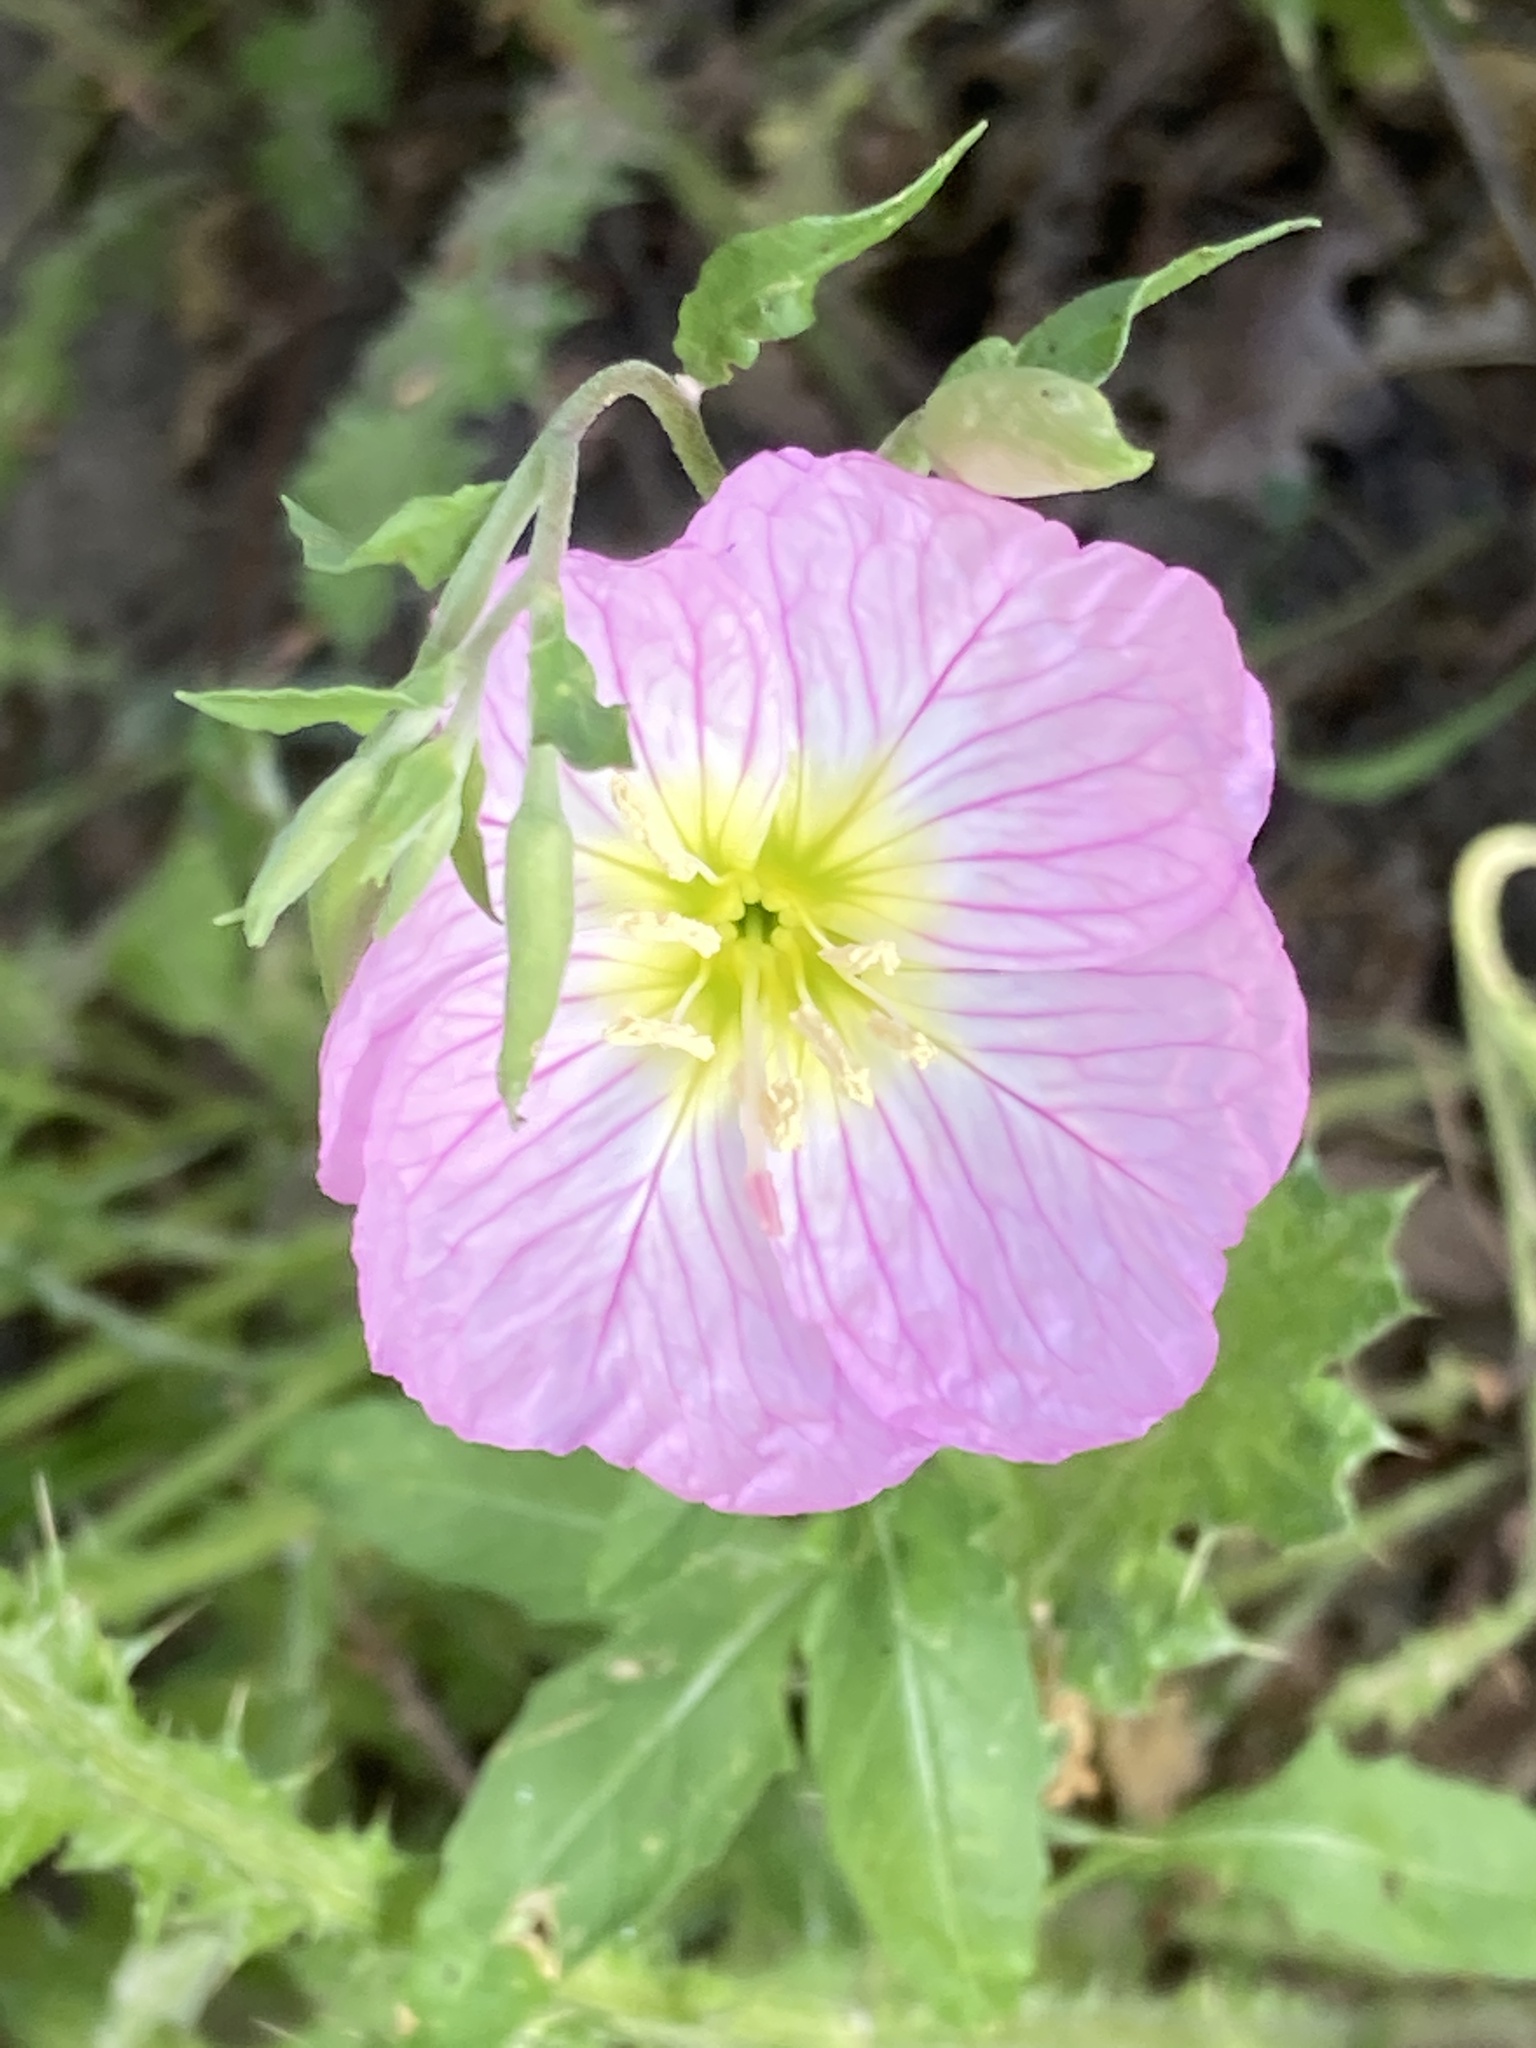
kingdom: Plantae
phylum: Tracheophyta
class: Magnoliopsida
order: Myrtales
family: Onagraceae
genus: Oenothera
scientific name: Oenothera speciosa
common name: White evening-primrose
